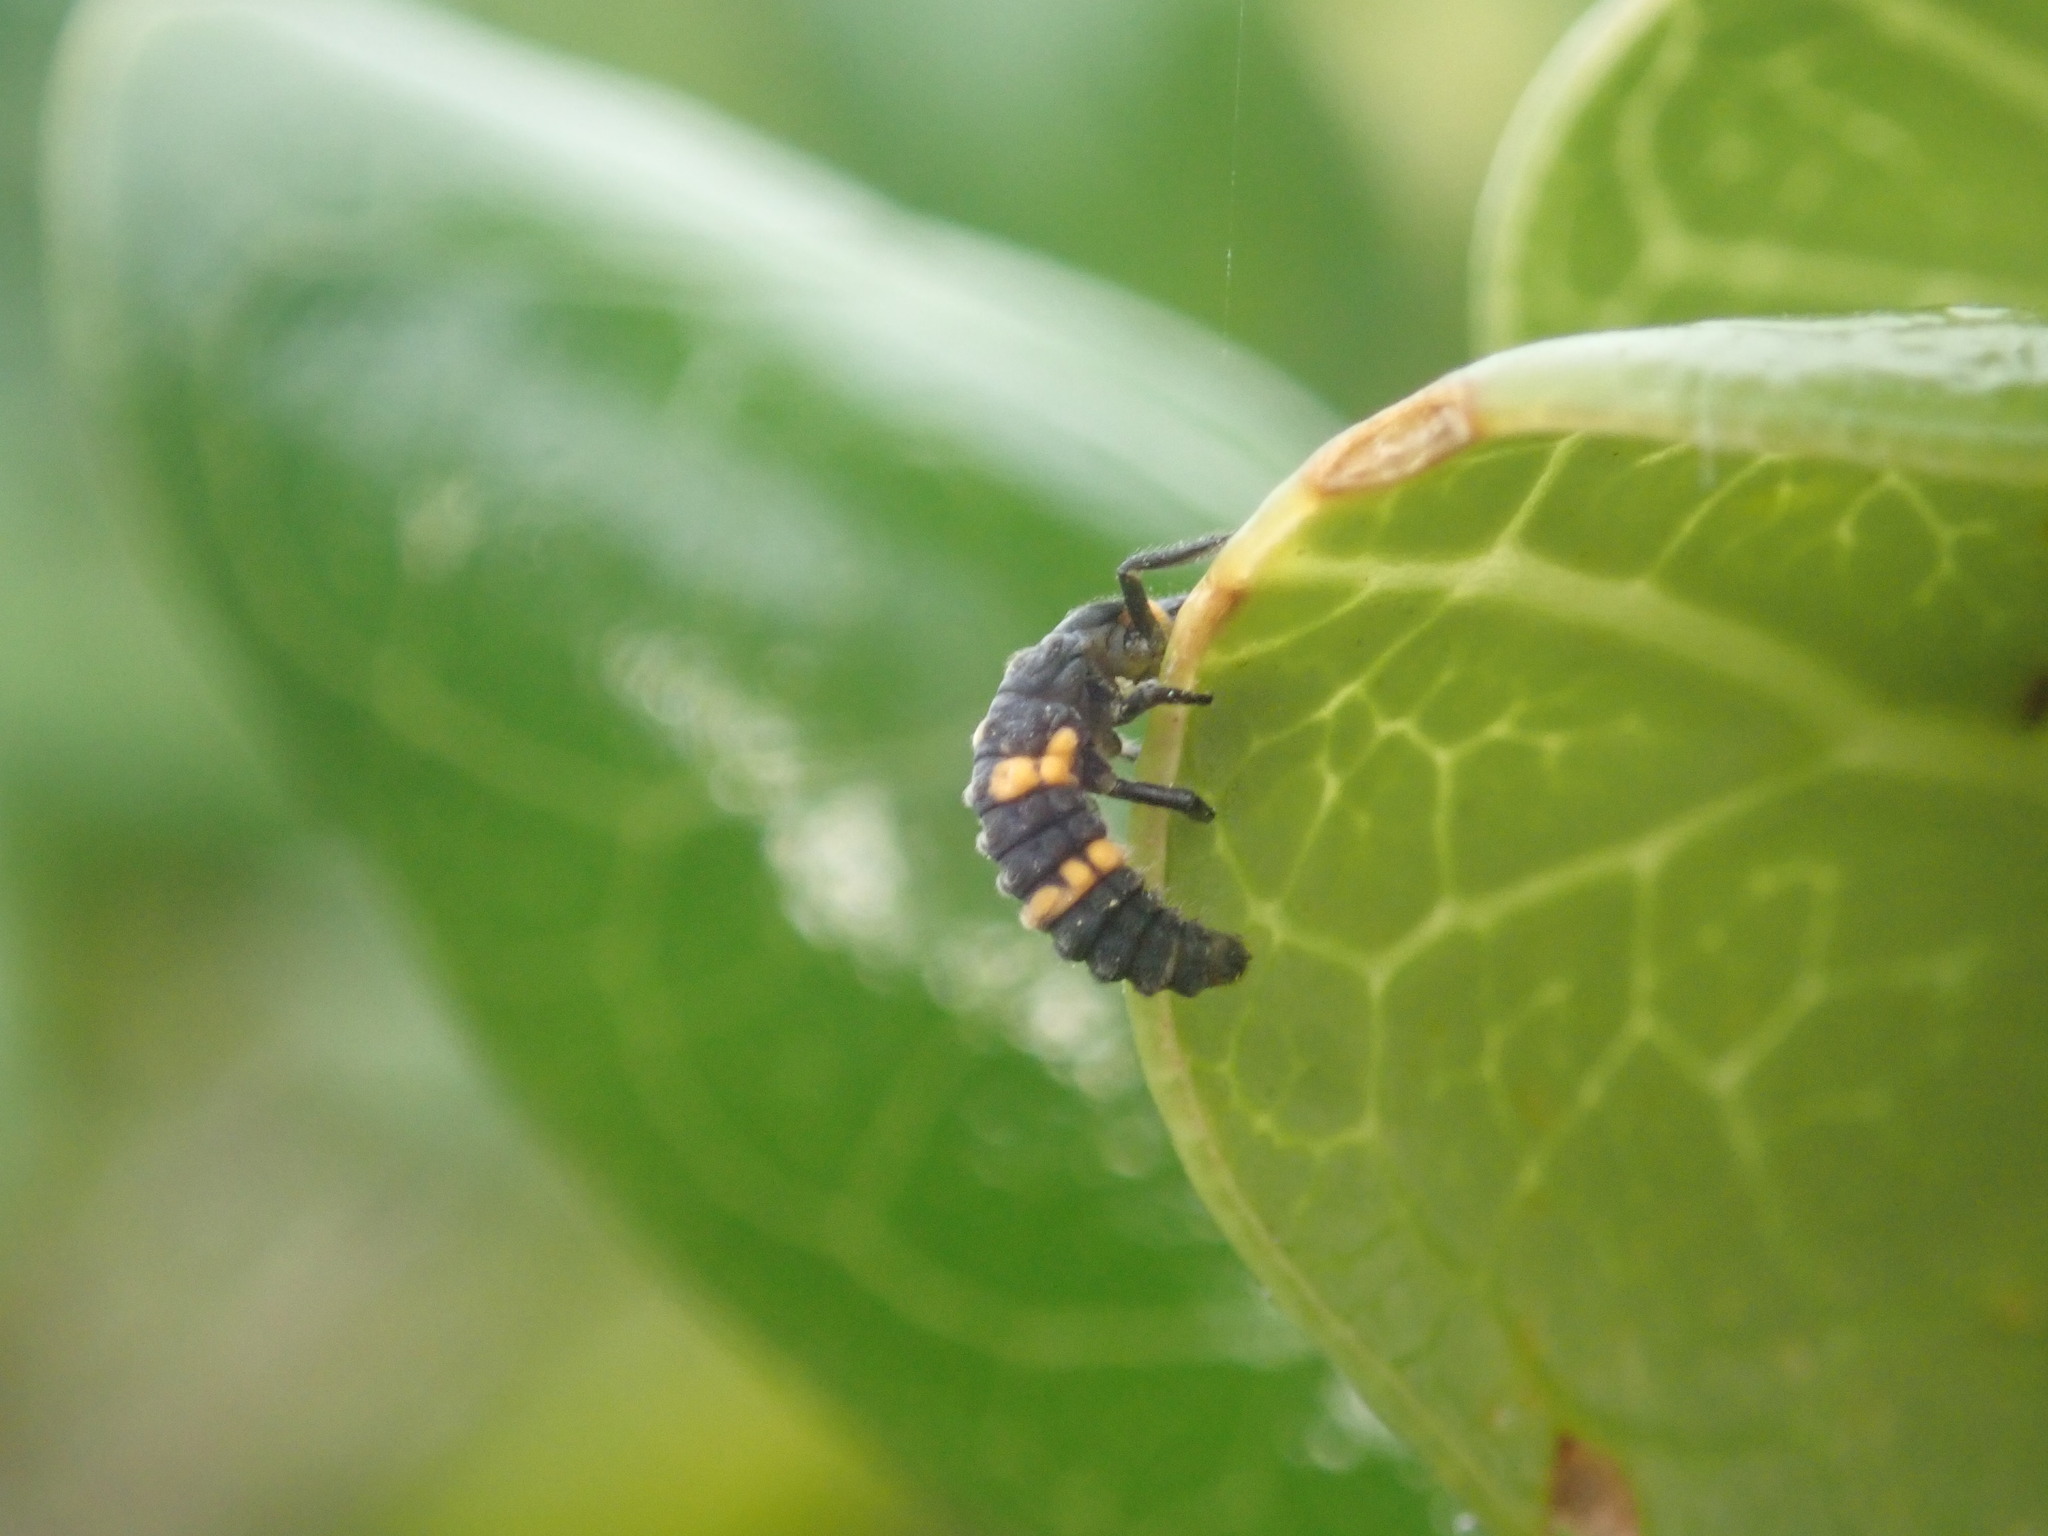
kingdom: Animalia
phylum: Arthropoda
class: Insecta
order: Coleoptera
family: Coccinellidae
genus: Coccinella
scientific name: Coccinella leonina
